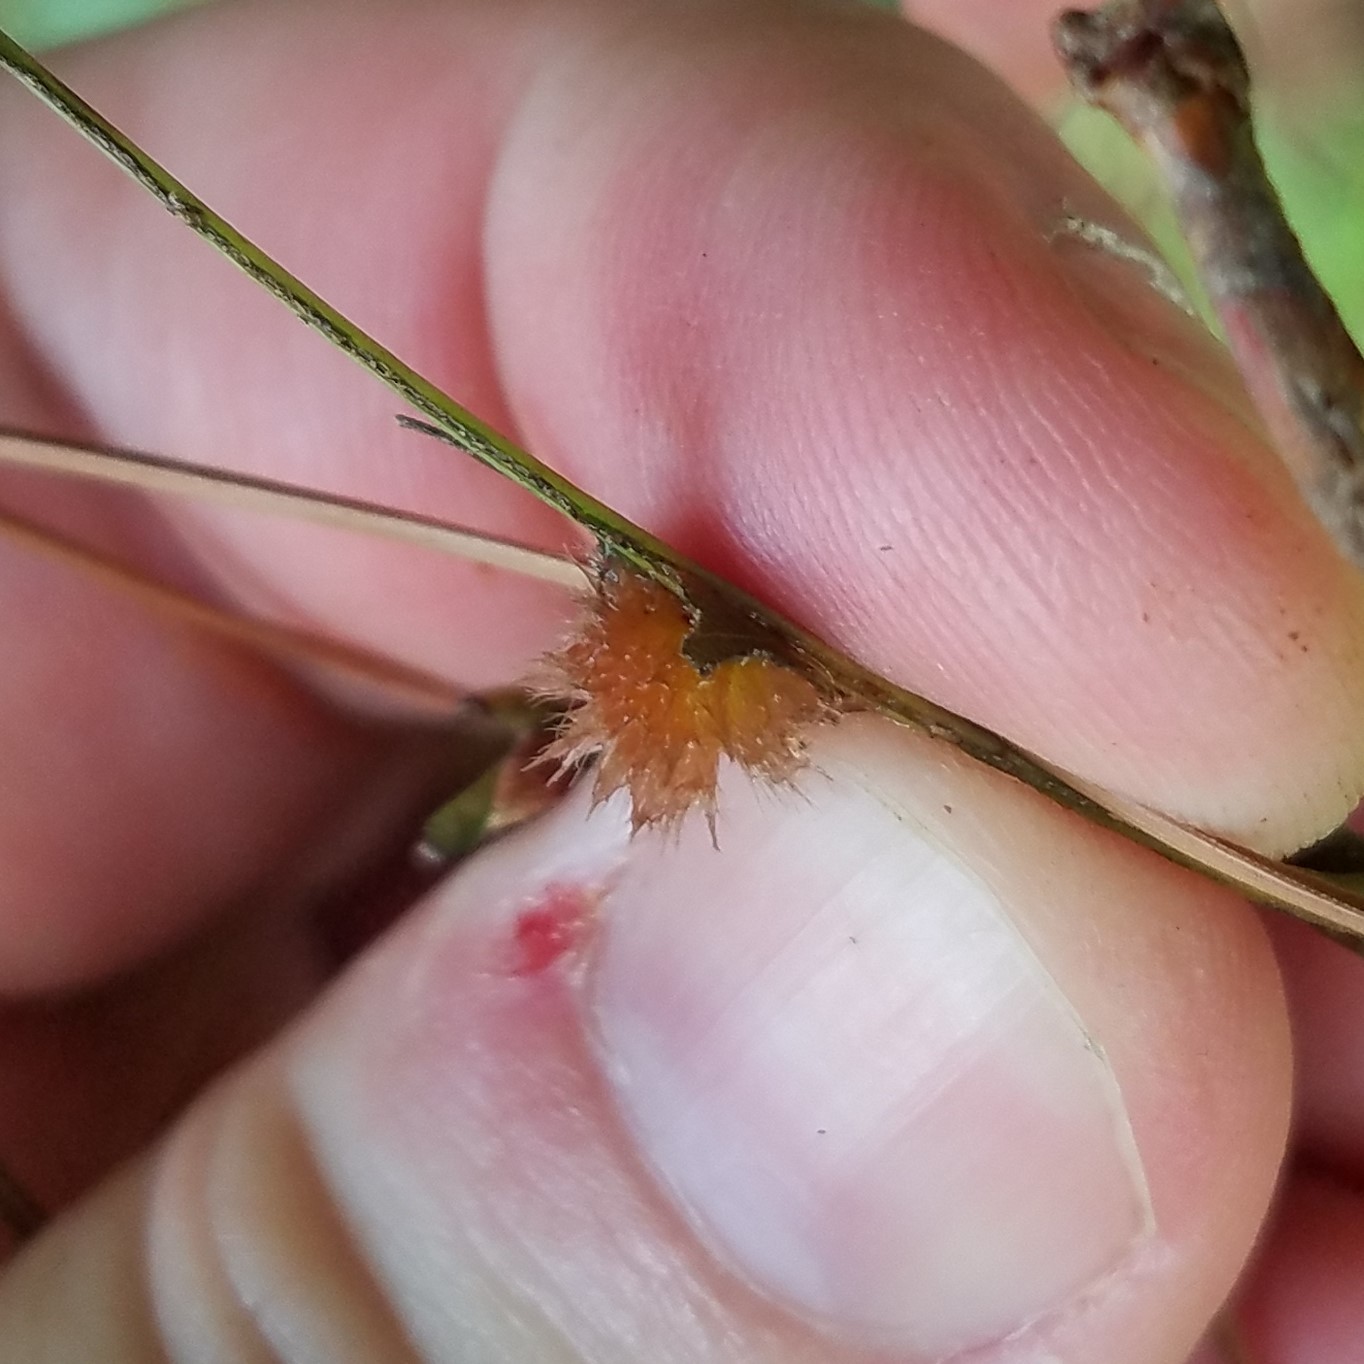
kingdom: Animalia
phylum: Arthropoda
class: Insecta
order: Hymenoptera
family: Cynipidae
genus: Callirhytis
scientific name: Callirhytis
